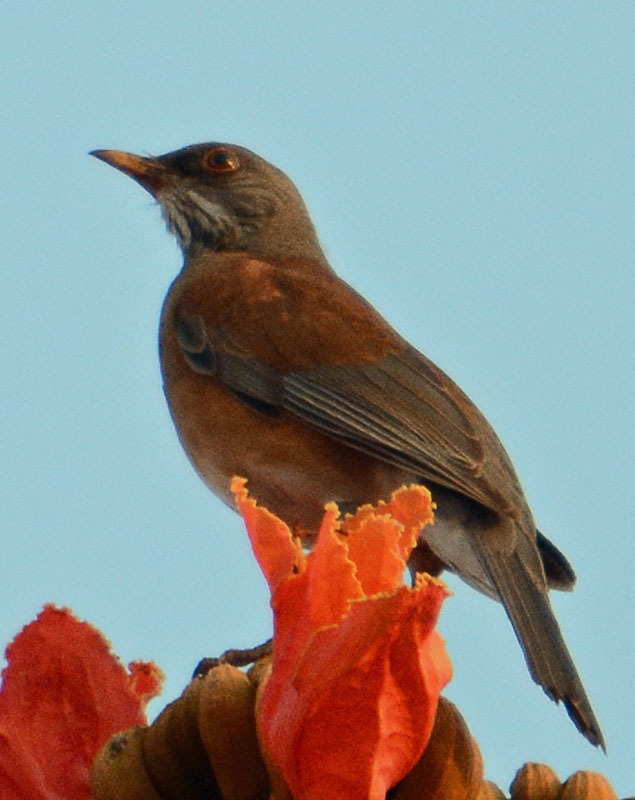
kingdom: Animalia
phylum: Chordata
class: Aves
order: Passeriformes
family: Turdidae
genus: Turdus
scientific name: Turdus rufopalliatus
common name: Rufous-backed robin
